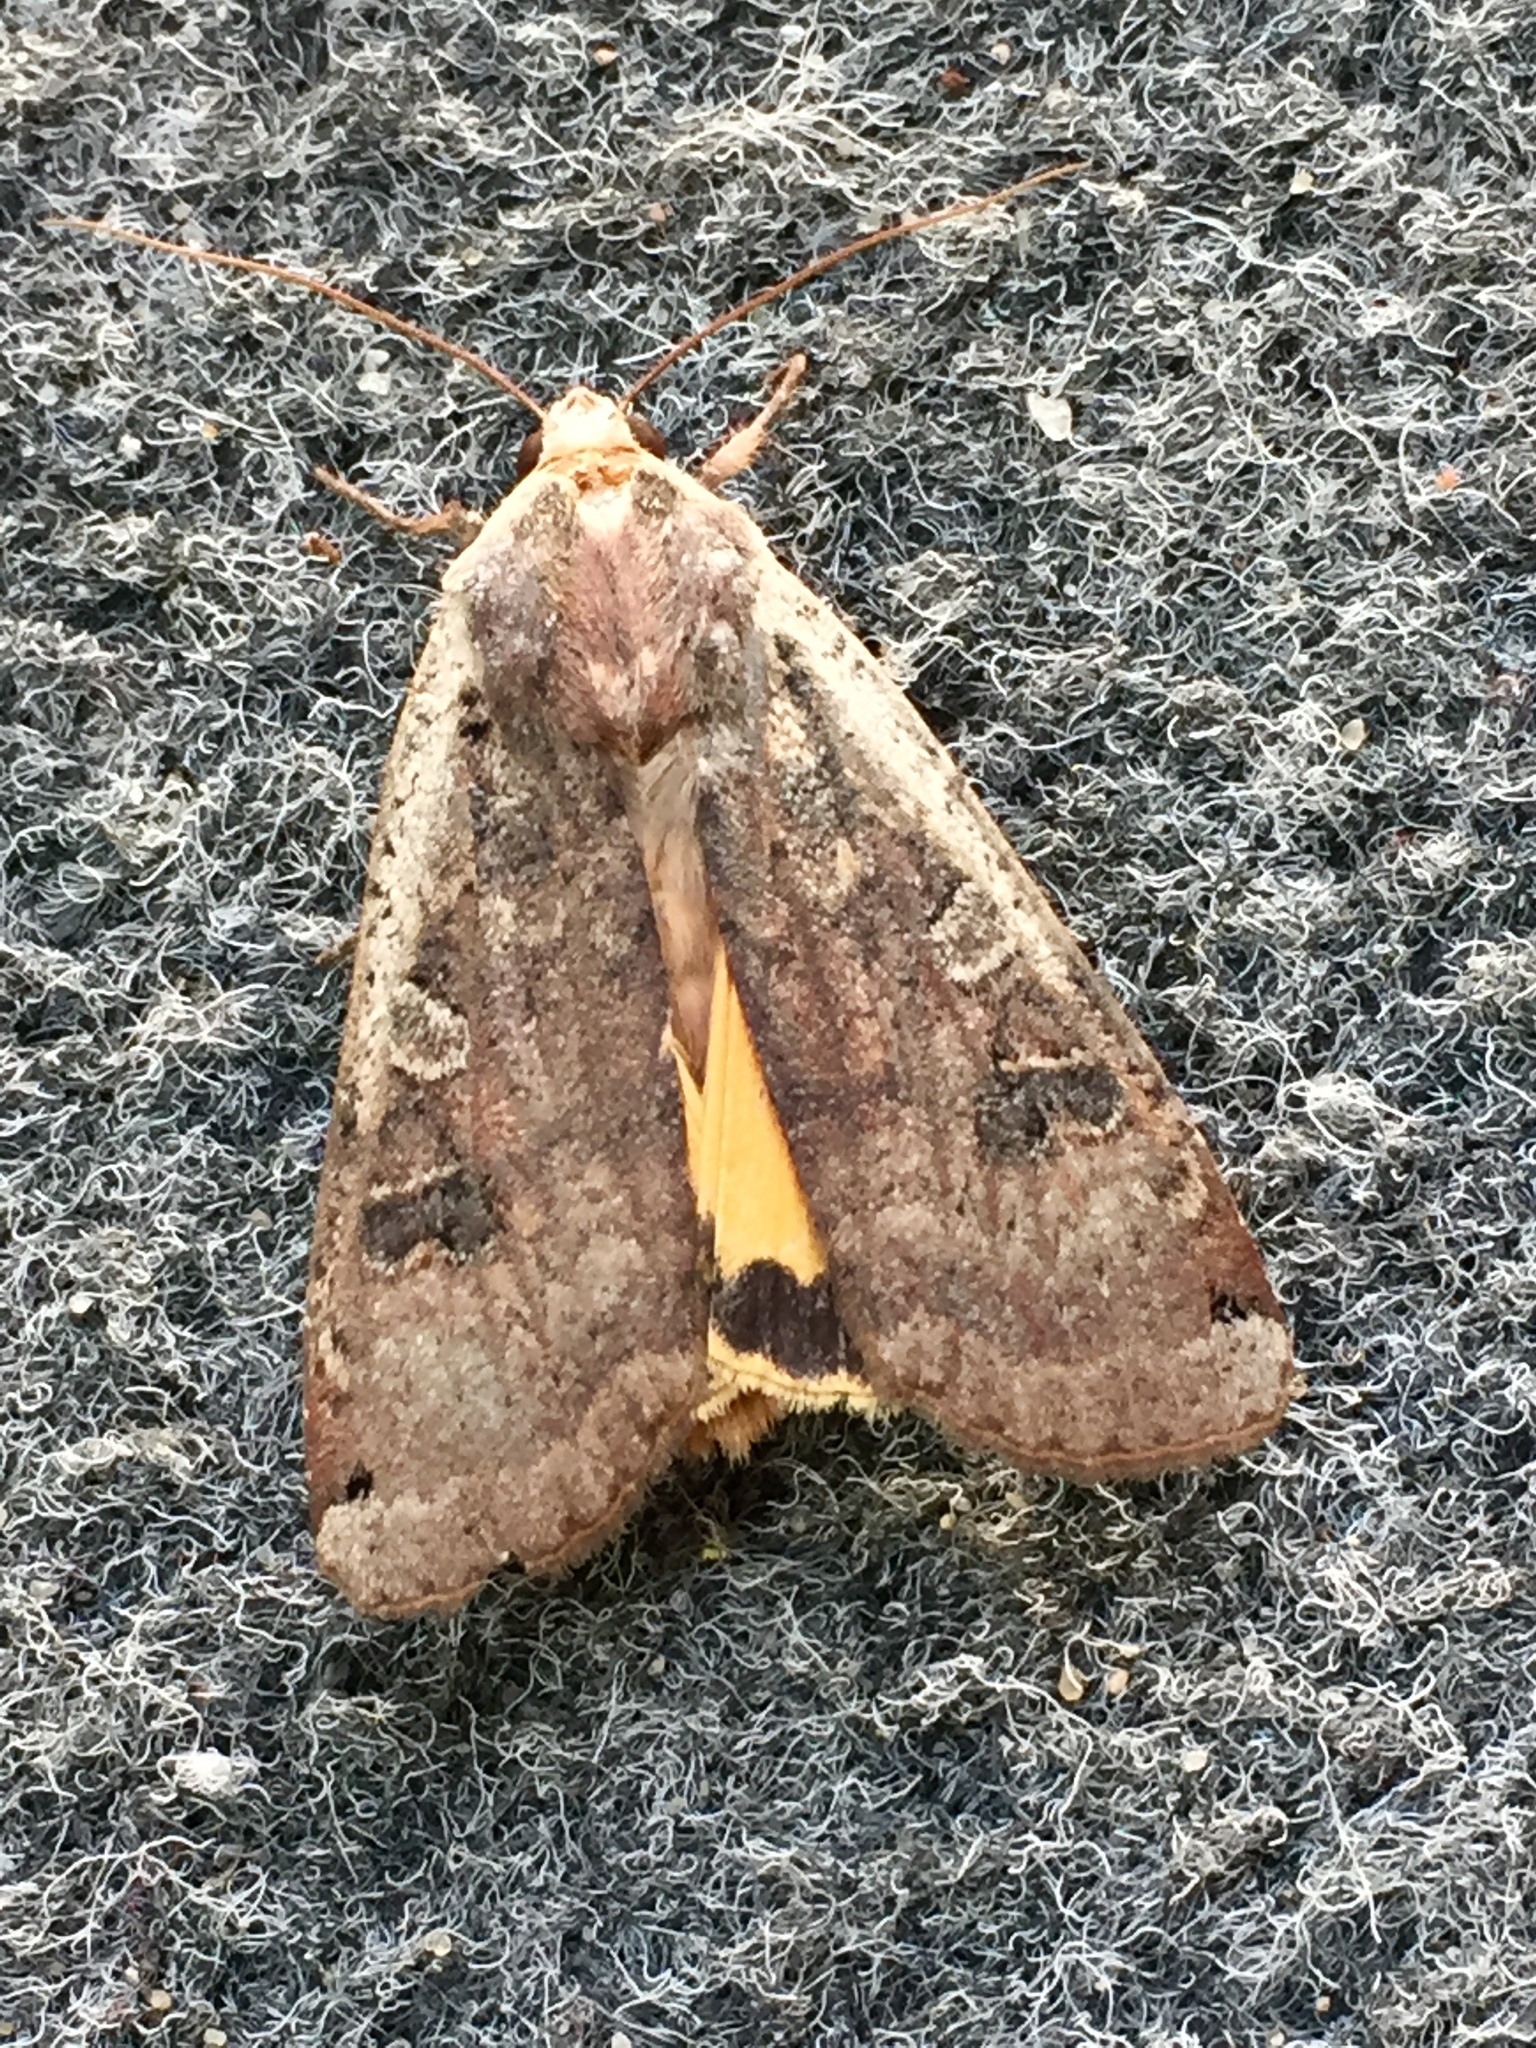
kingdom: Animalia
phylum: Arthropoda
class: Insecta
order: Lepidoptera
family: Noctuidae
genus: Noctua
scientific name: Noctua pronuba
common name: Large yellow underwing
